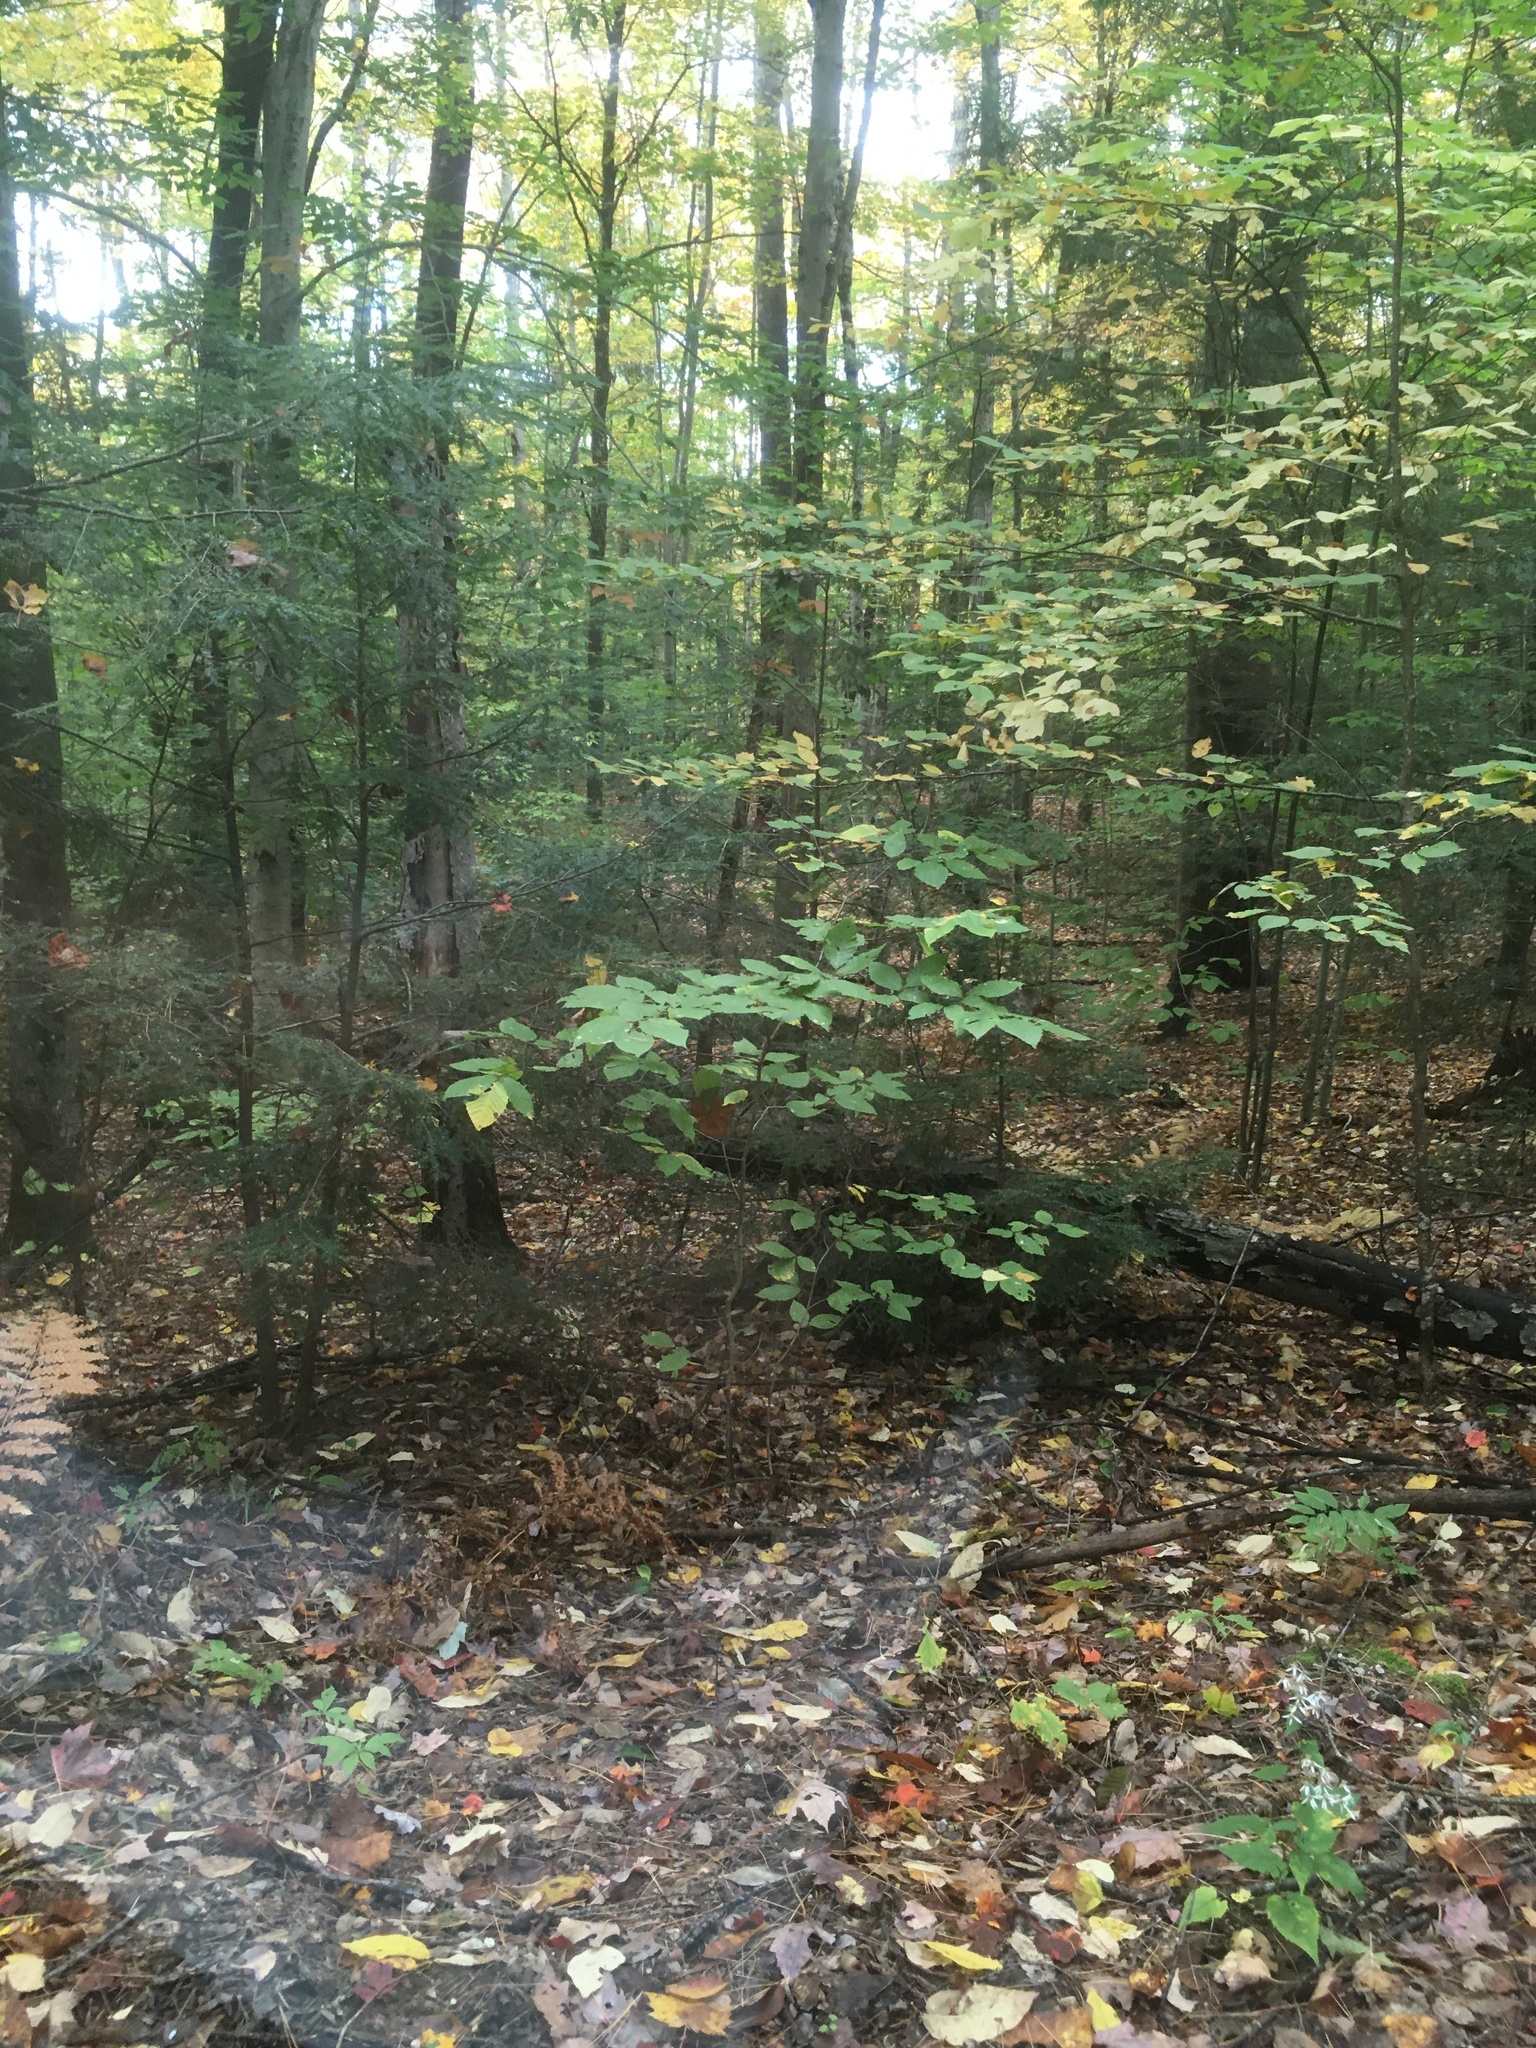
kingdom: Plantae
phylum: Tracheophyta
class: Magnoliopsida
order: Fagales
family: Fagaceae
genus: Fagus
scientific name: Fagus grandifolia
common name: American beech
